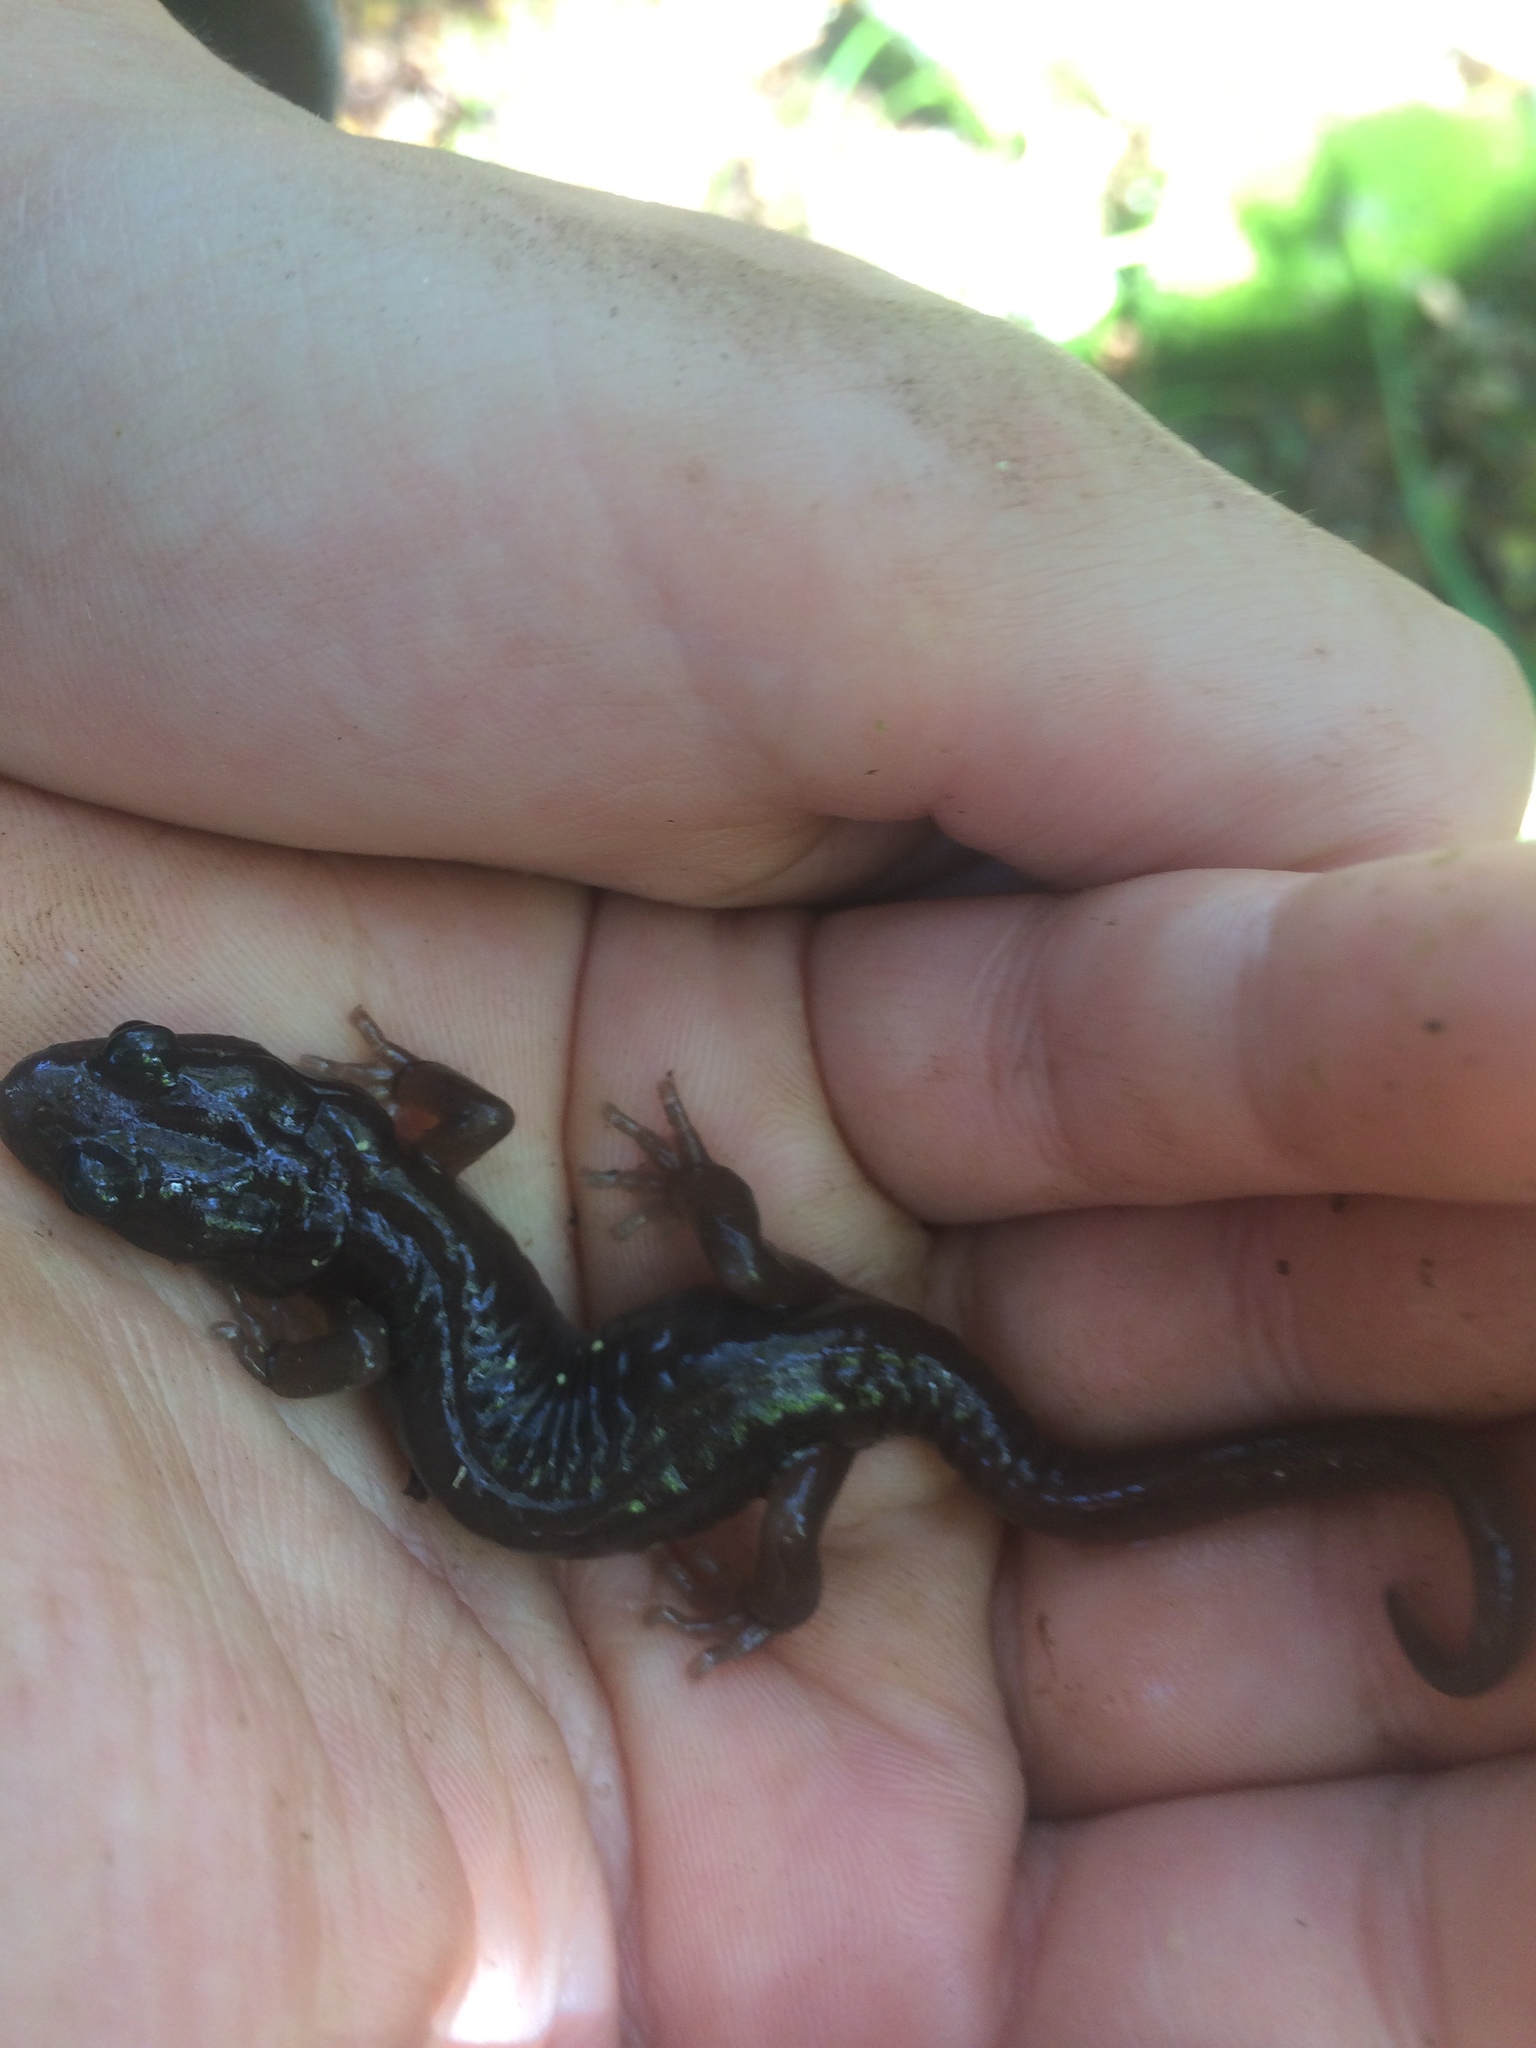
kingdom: Animalia
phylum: Chordata
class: Amphibia
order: Caudata
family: Plethodontidae
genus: Aneides
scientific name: Aneides lugubris
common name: Arboreal salamander
